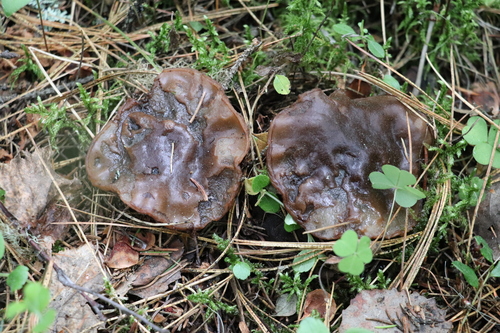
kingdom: Fungi
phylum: Ascomycota
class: Pezizomycetes
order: Pezizales
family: Sarcosomataceae
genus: Sarcosoma
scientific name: Sarcosoma globosum
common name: Charred-pancake cup
